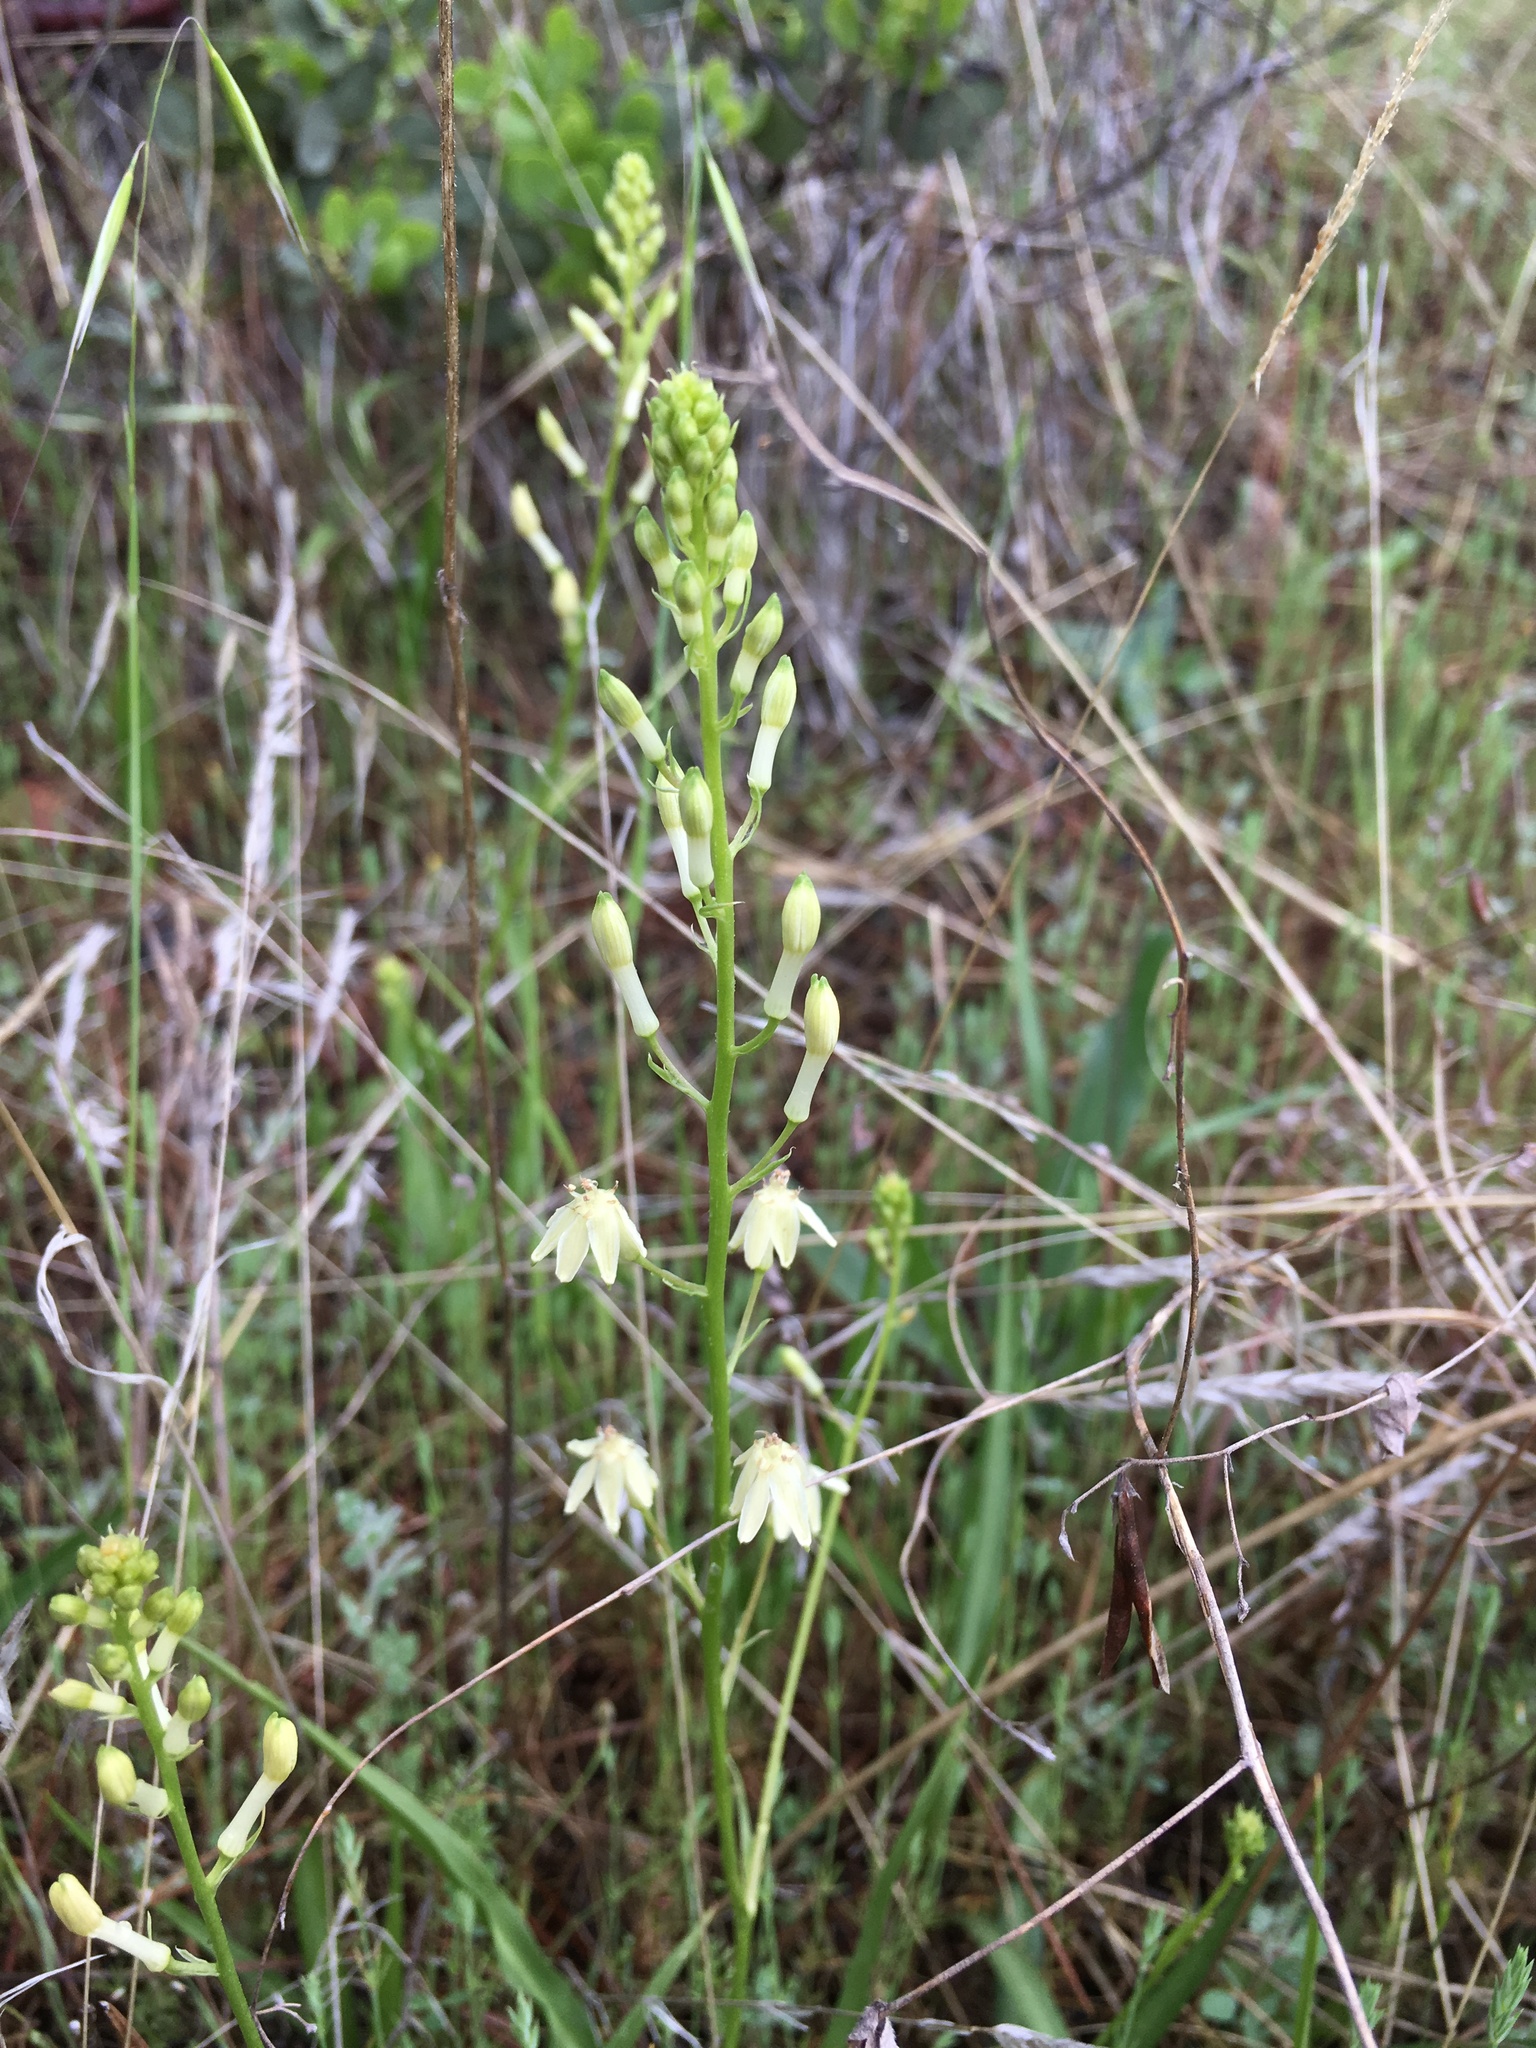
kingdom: Plantae
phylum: Tracheophyta
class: Liliopsida
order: Asparagales
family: Tecophilaeaceae
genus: Odontostomum
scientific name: Odontostomum hartwegii
